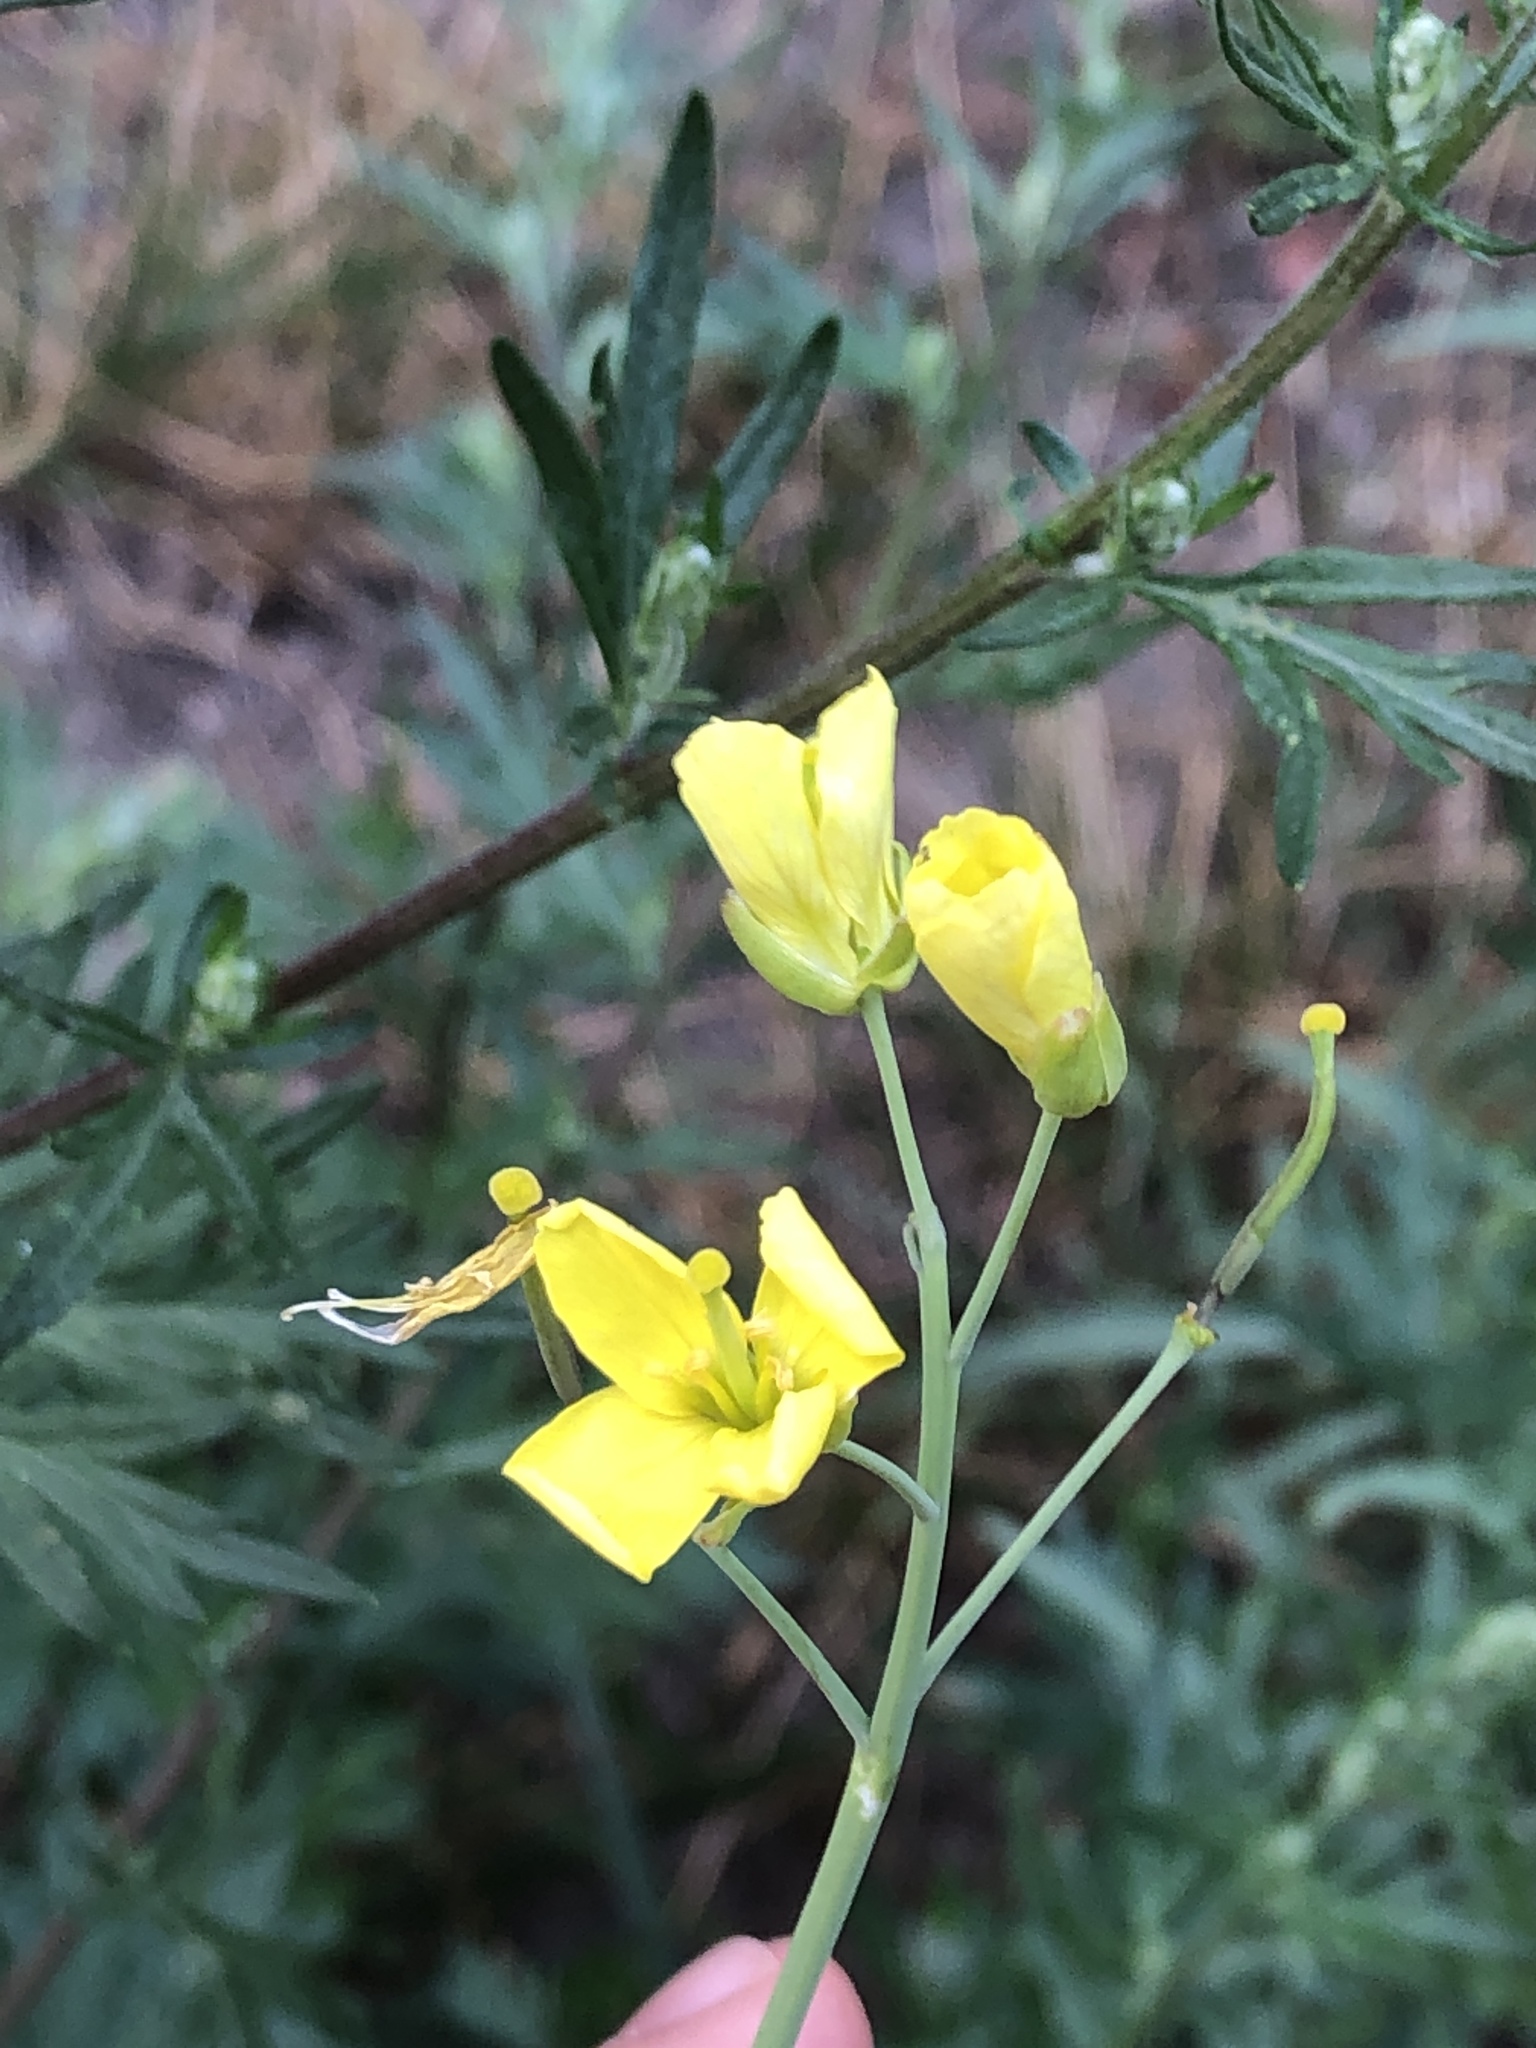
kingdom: Plantae
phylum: Tracheophyta
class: Magnoliopsida
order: Brassicales
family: Brassicaceae
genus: Diplotaxis
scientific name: Diplotaxis tenuifolia
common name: Perennial wall-rocket
